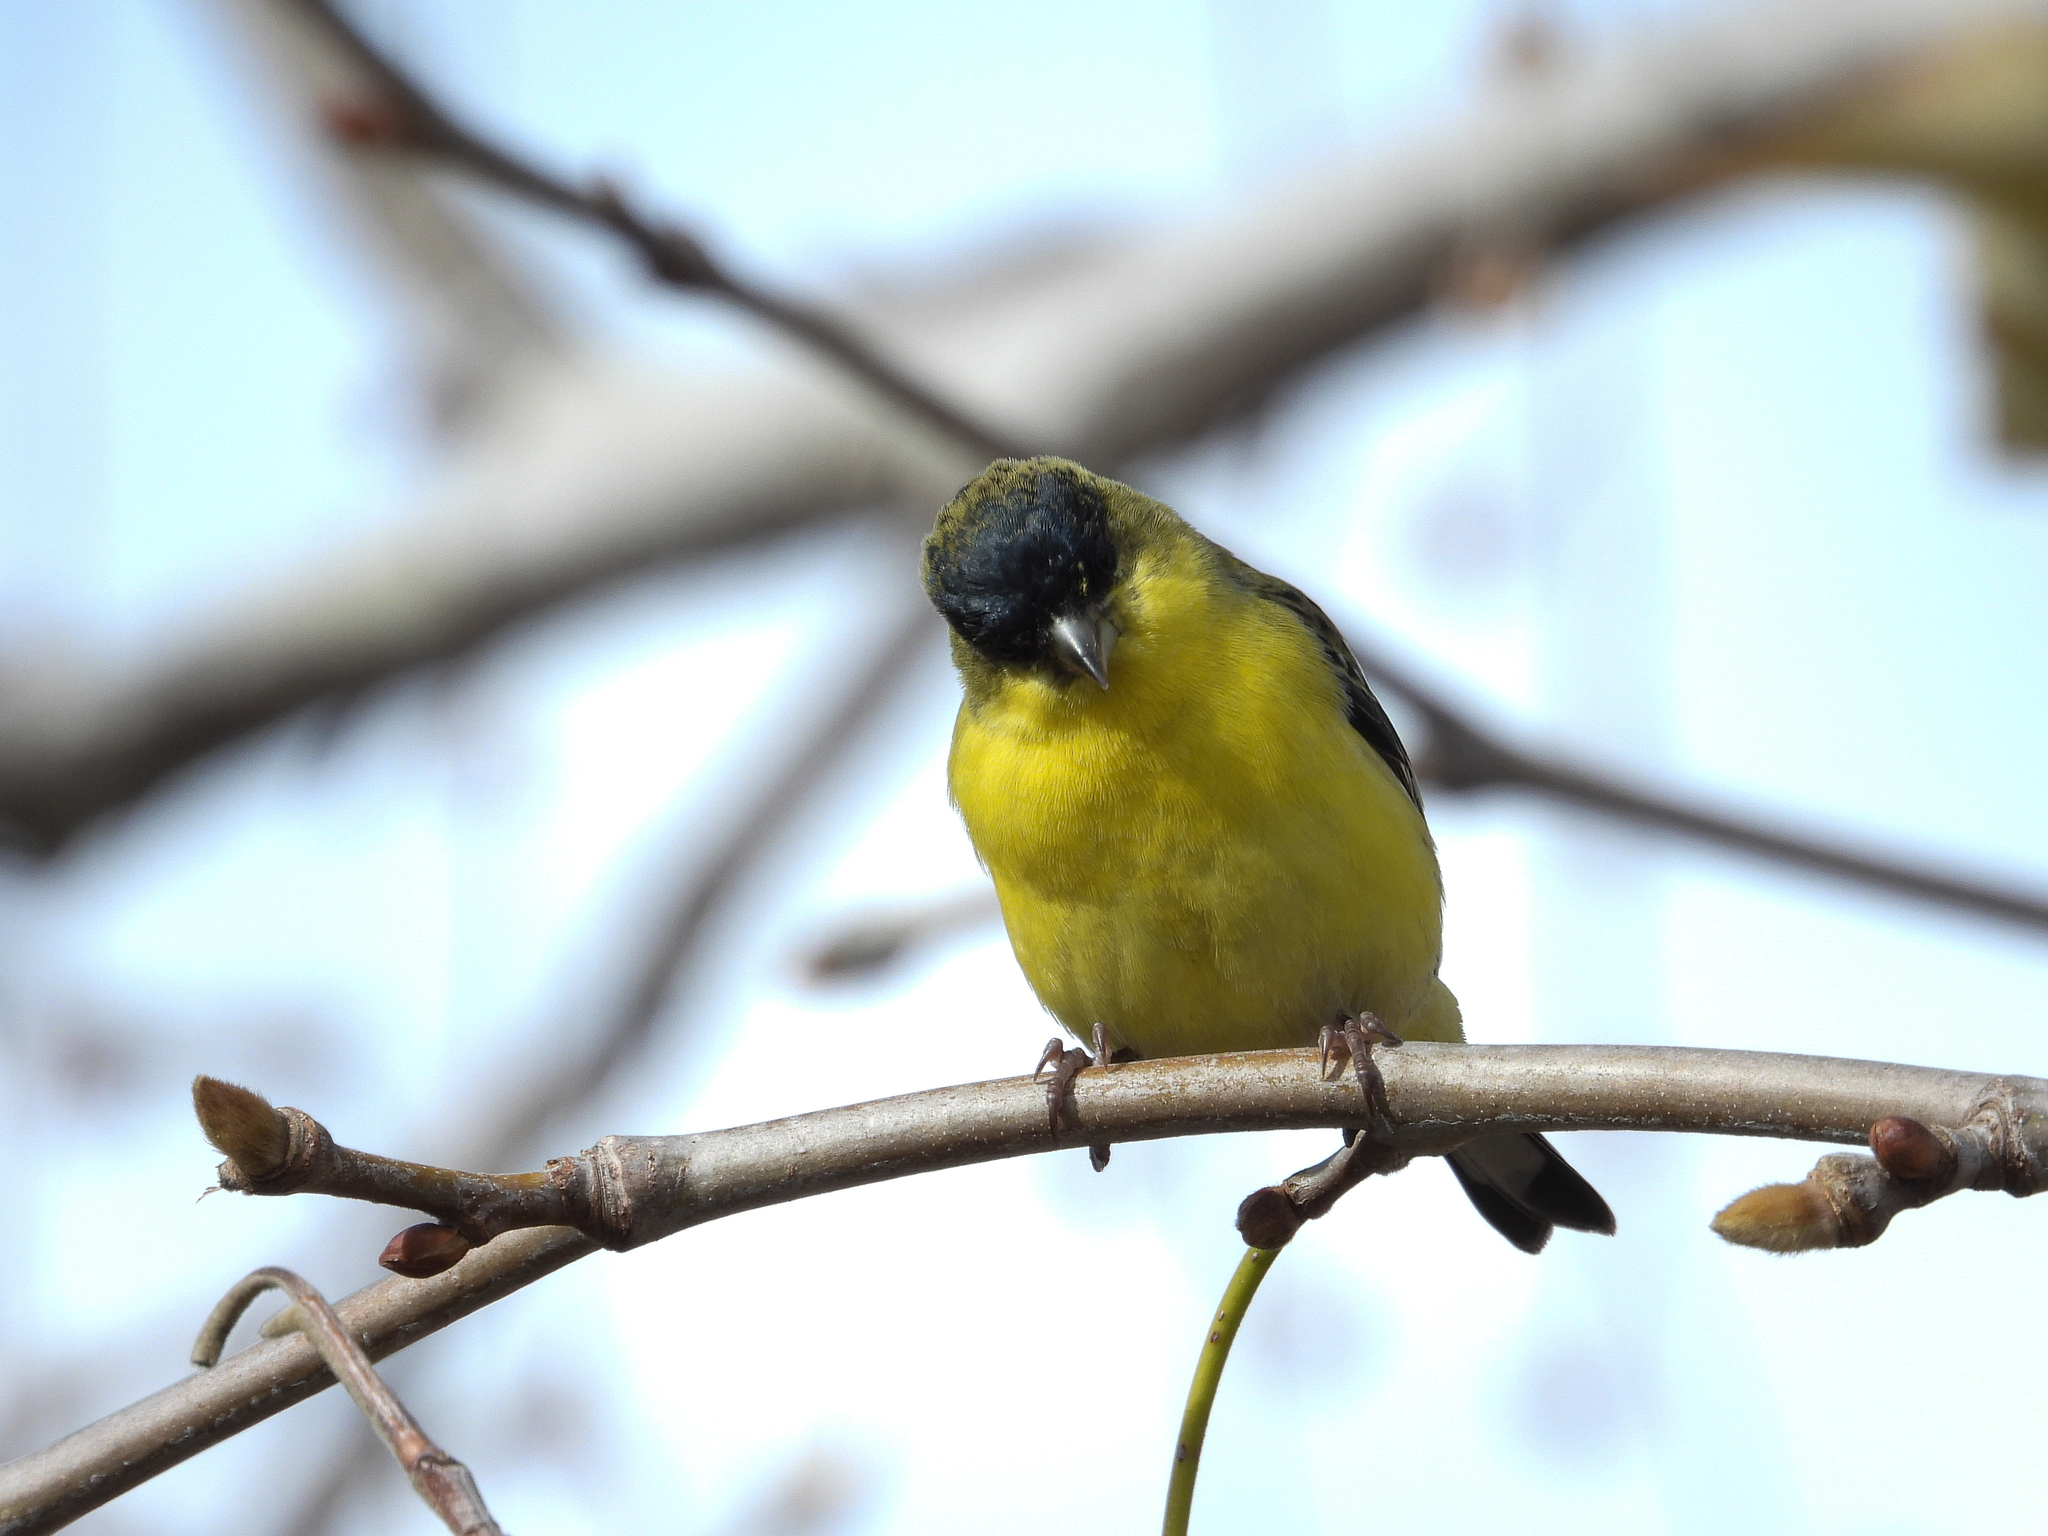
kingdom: Animalia
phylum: Chordata
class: Aves
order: Passeriformes
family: Fringillidae
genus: Spinus
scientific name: Spinus psaltria
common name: Lesser goldfinch
